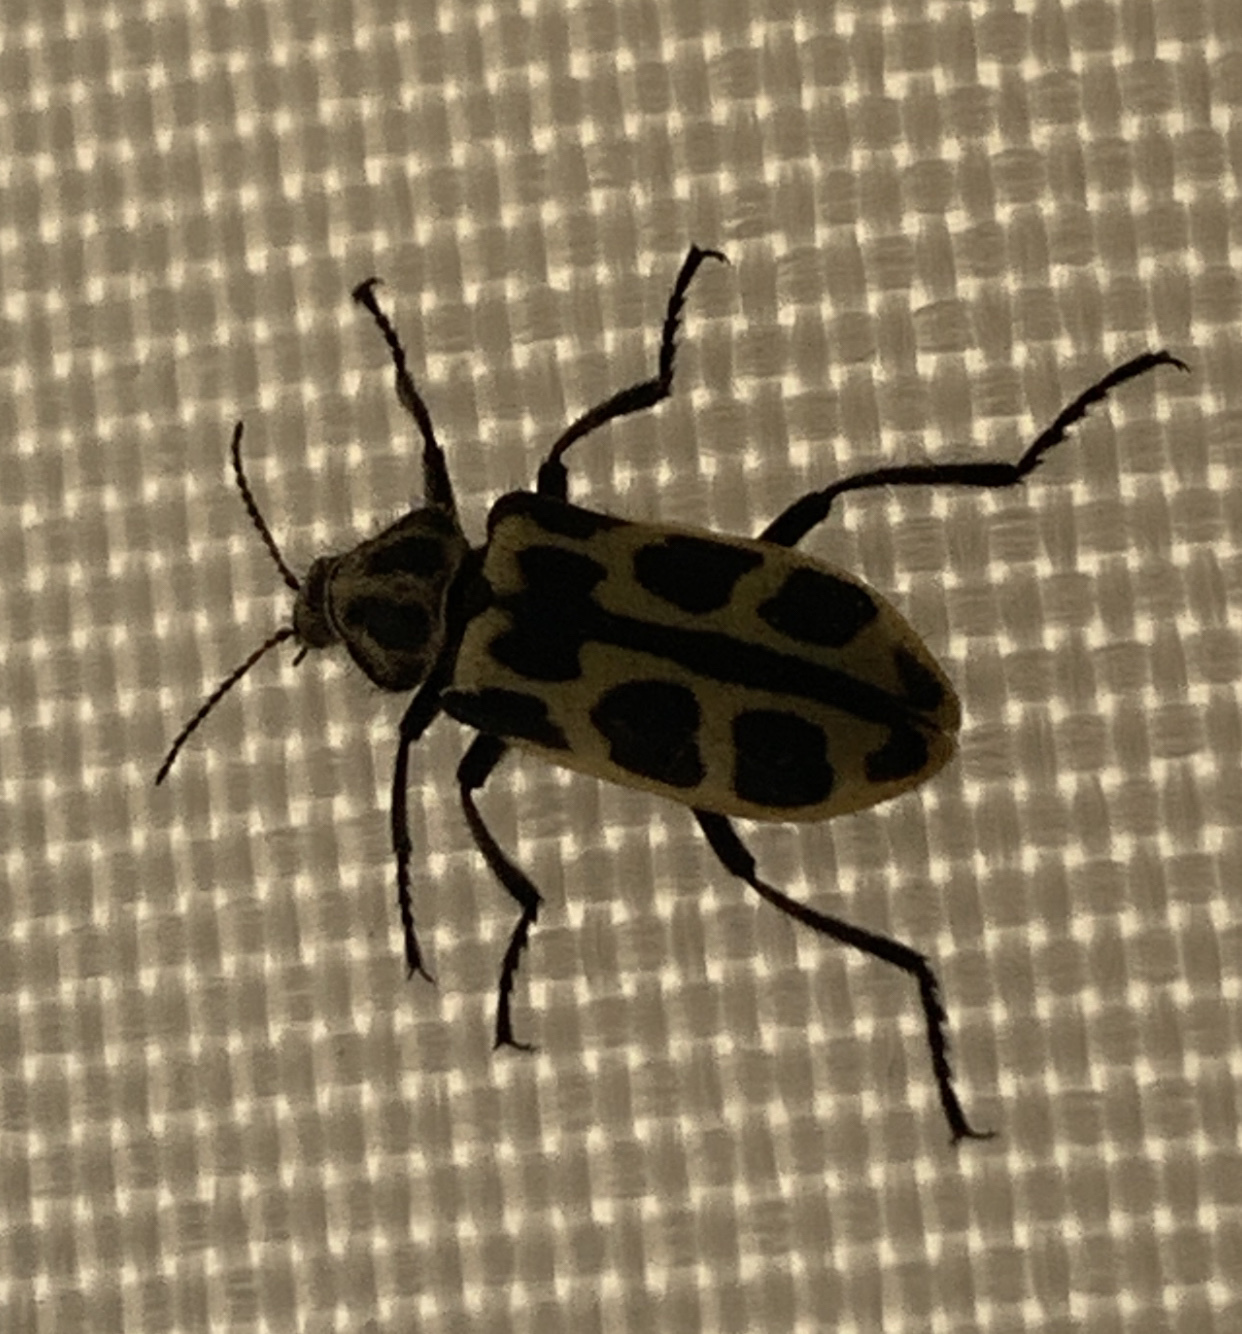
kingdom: Animalia
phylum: Arthropoda
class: Insecta
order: Coleoptera
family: Melyridae
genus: Astylus
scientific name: Astylus atromaculatus
